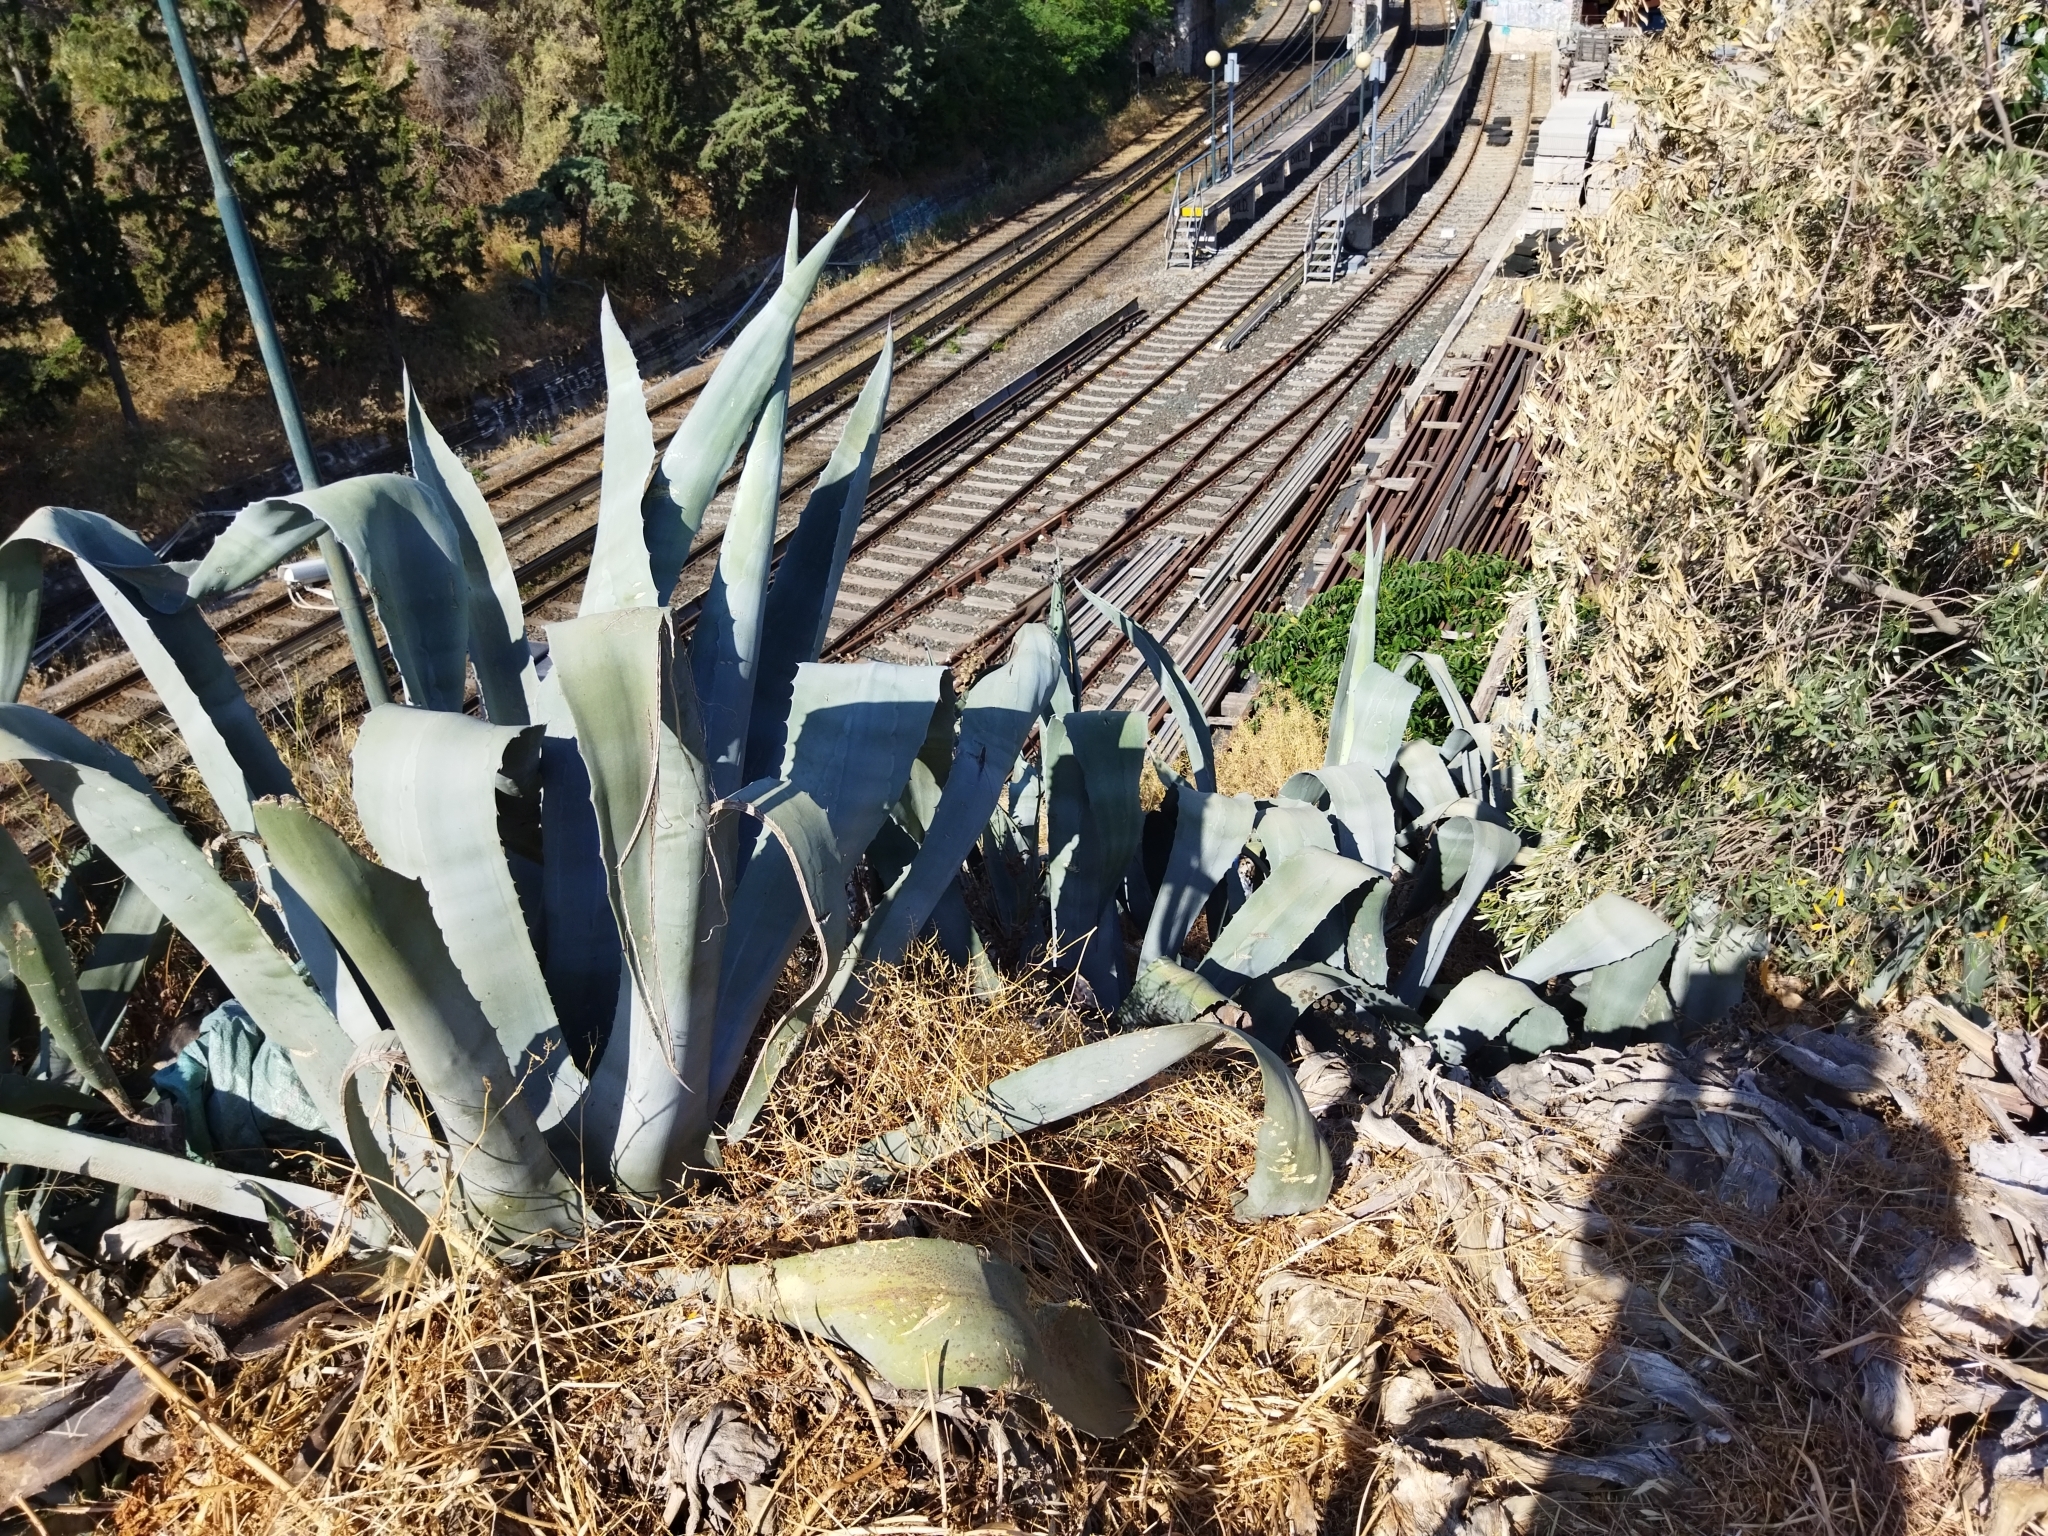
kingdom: Plantae
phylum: Tracheophyta
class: Liliopsida
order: Asparagales
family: Asparagaceae
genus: Agave
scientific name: Agave americana
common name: Centuryplant
